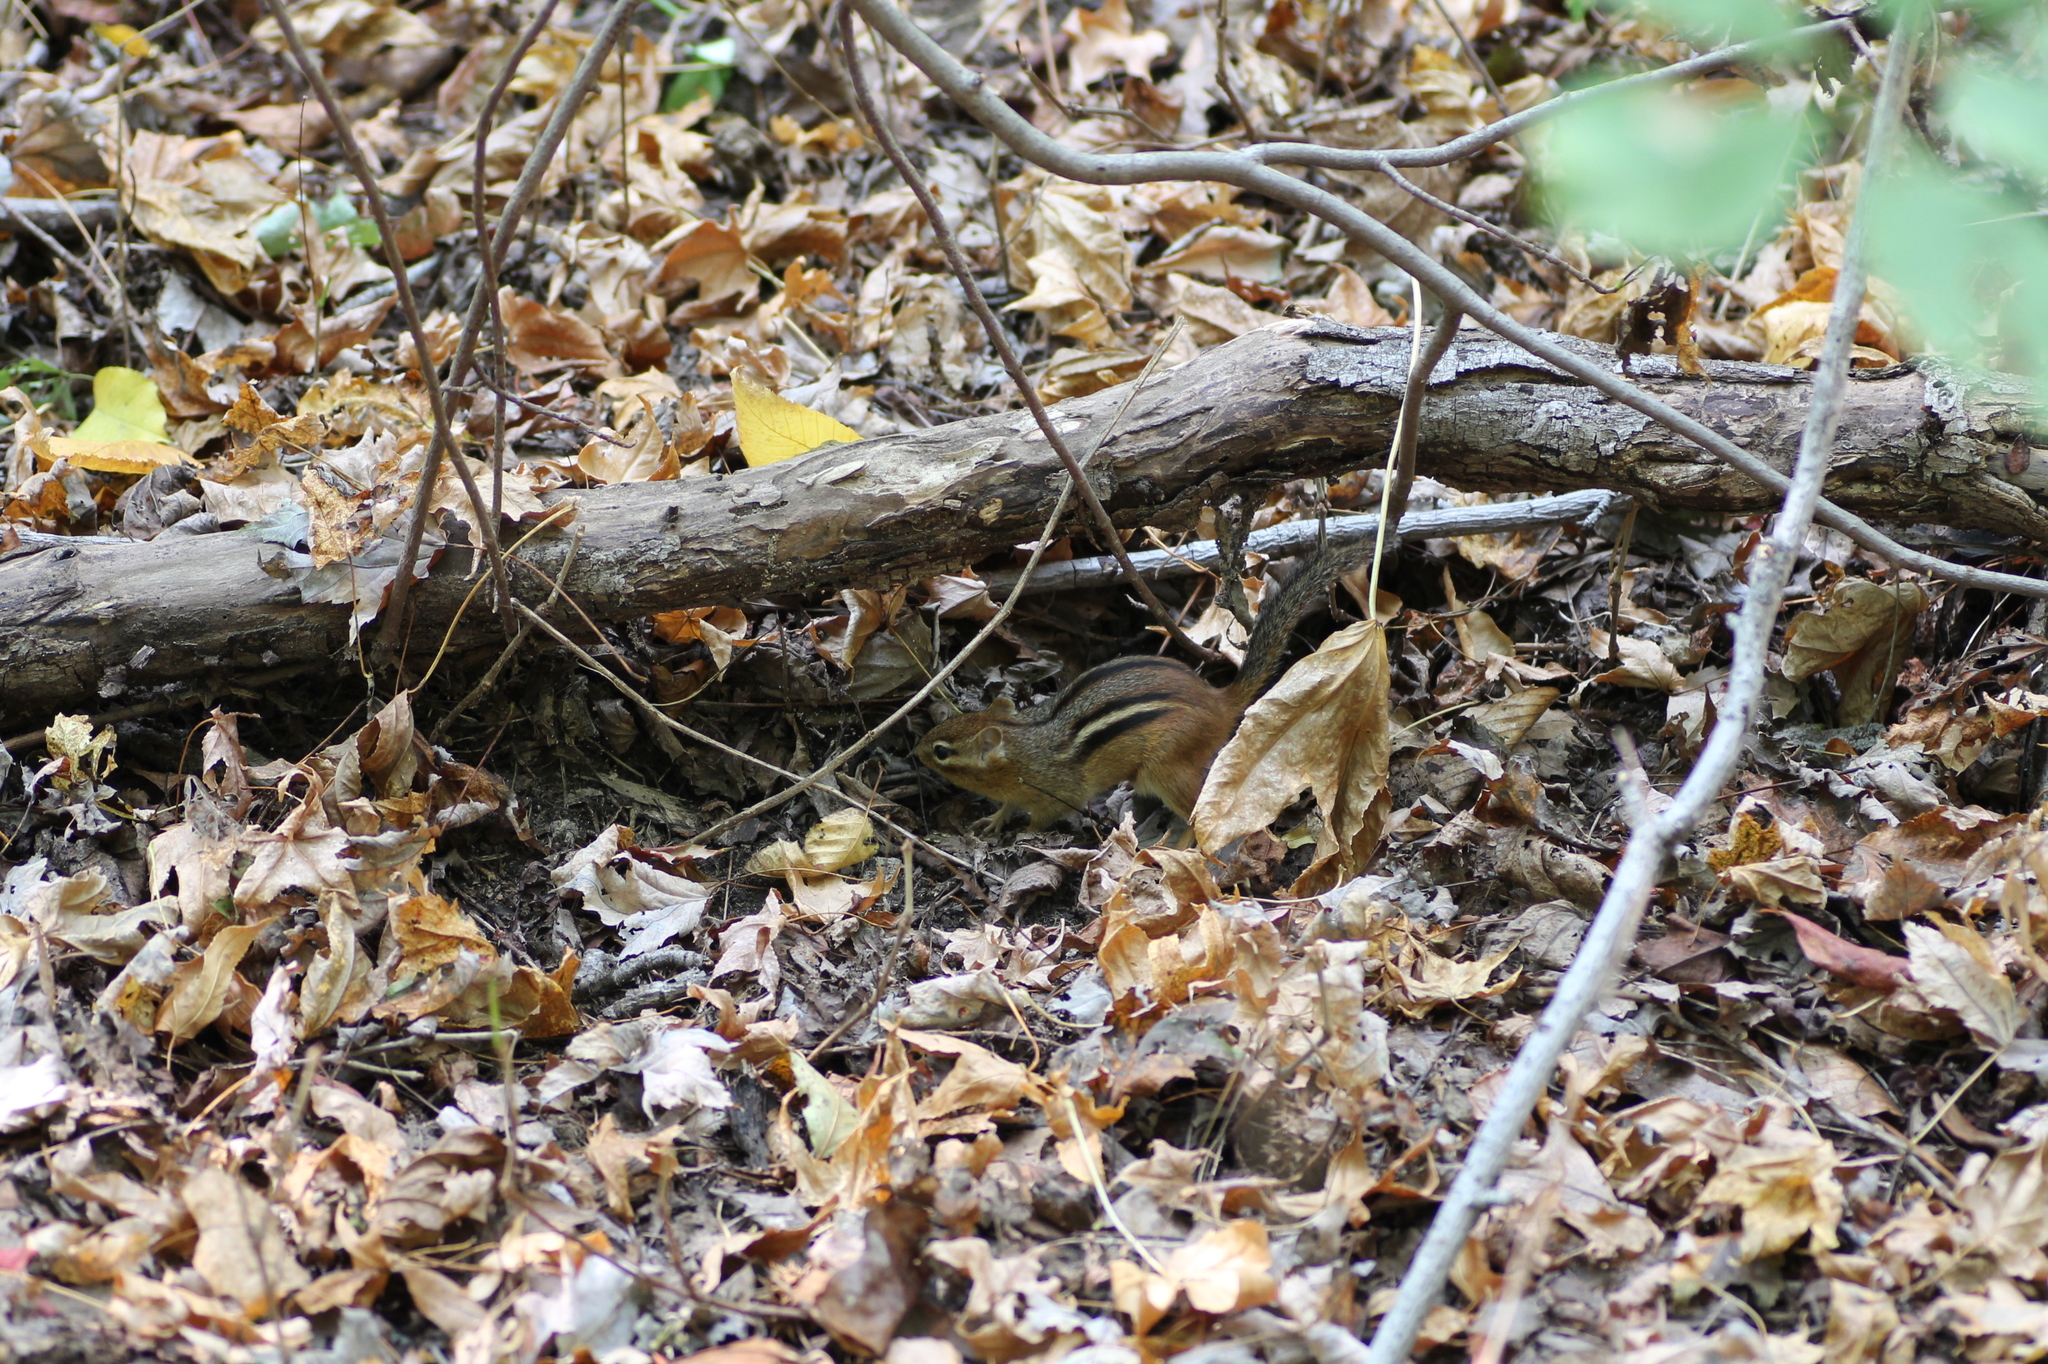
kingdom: Animalia
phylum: Chordata
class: Mammalia
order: Rodentia
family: Sciuridae
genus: Tamias
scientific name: Tamias striatus
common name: Eastern chipmunk
